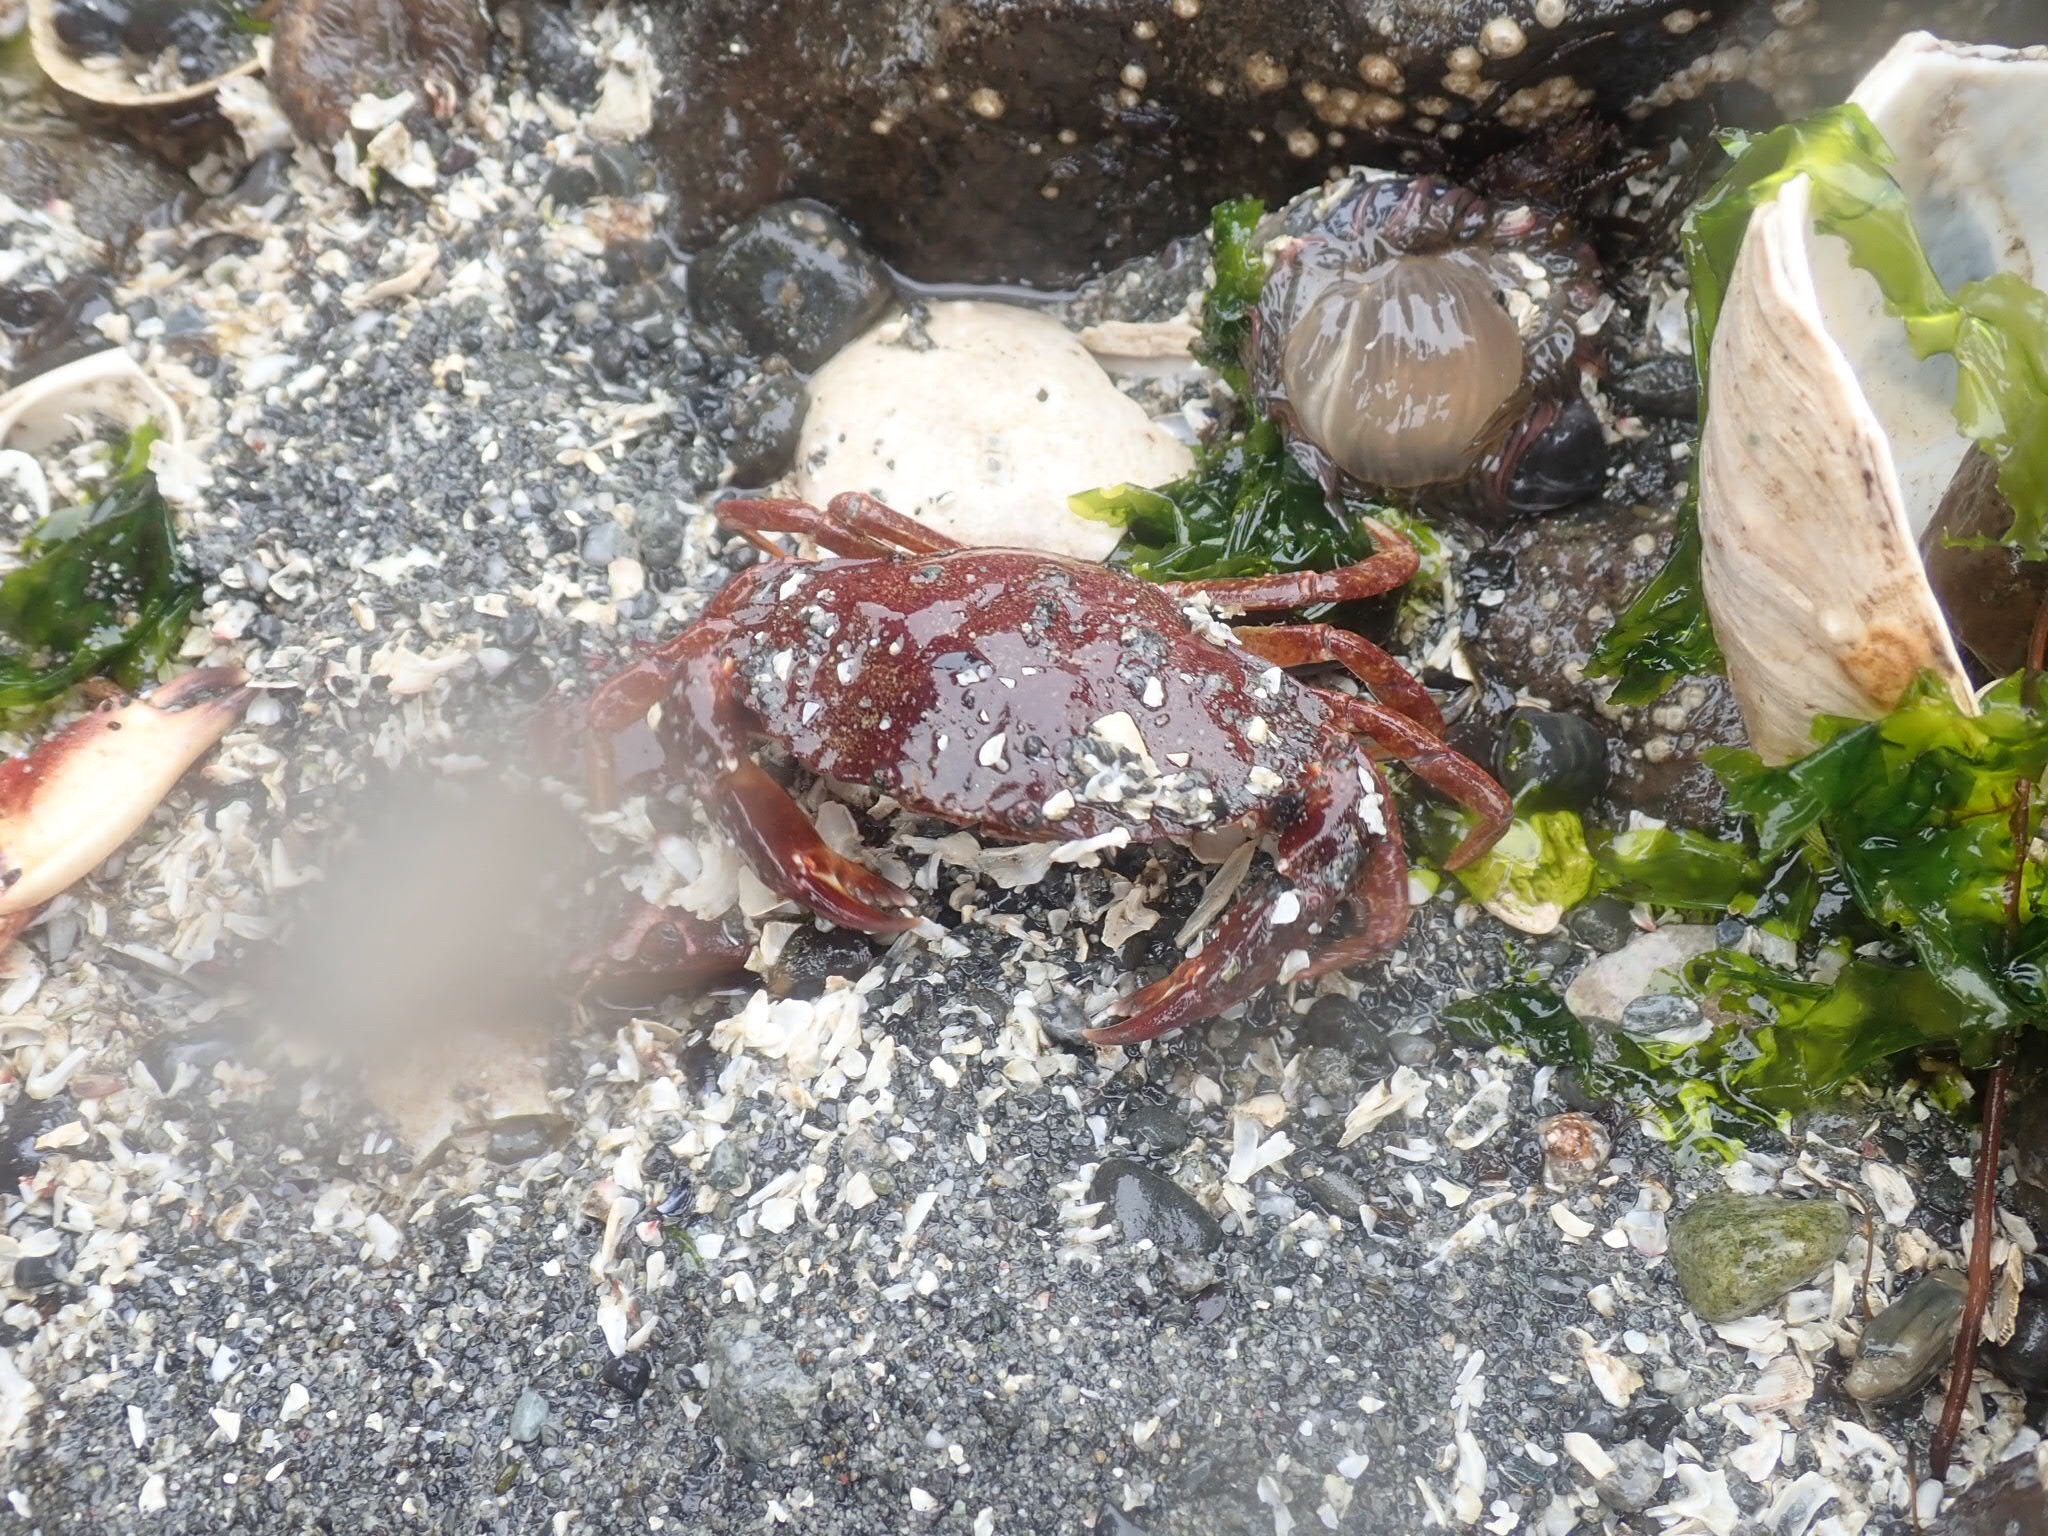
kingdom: Animalia
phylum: Arthropoda
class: Malacostraca
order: Decapoda
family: Cancridae
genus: Cancer
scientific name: Cancer productus
